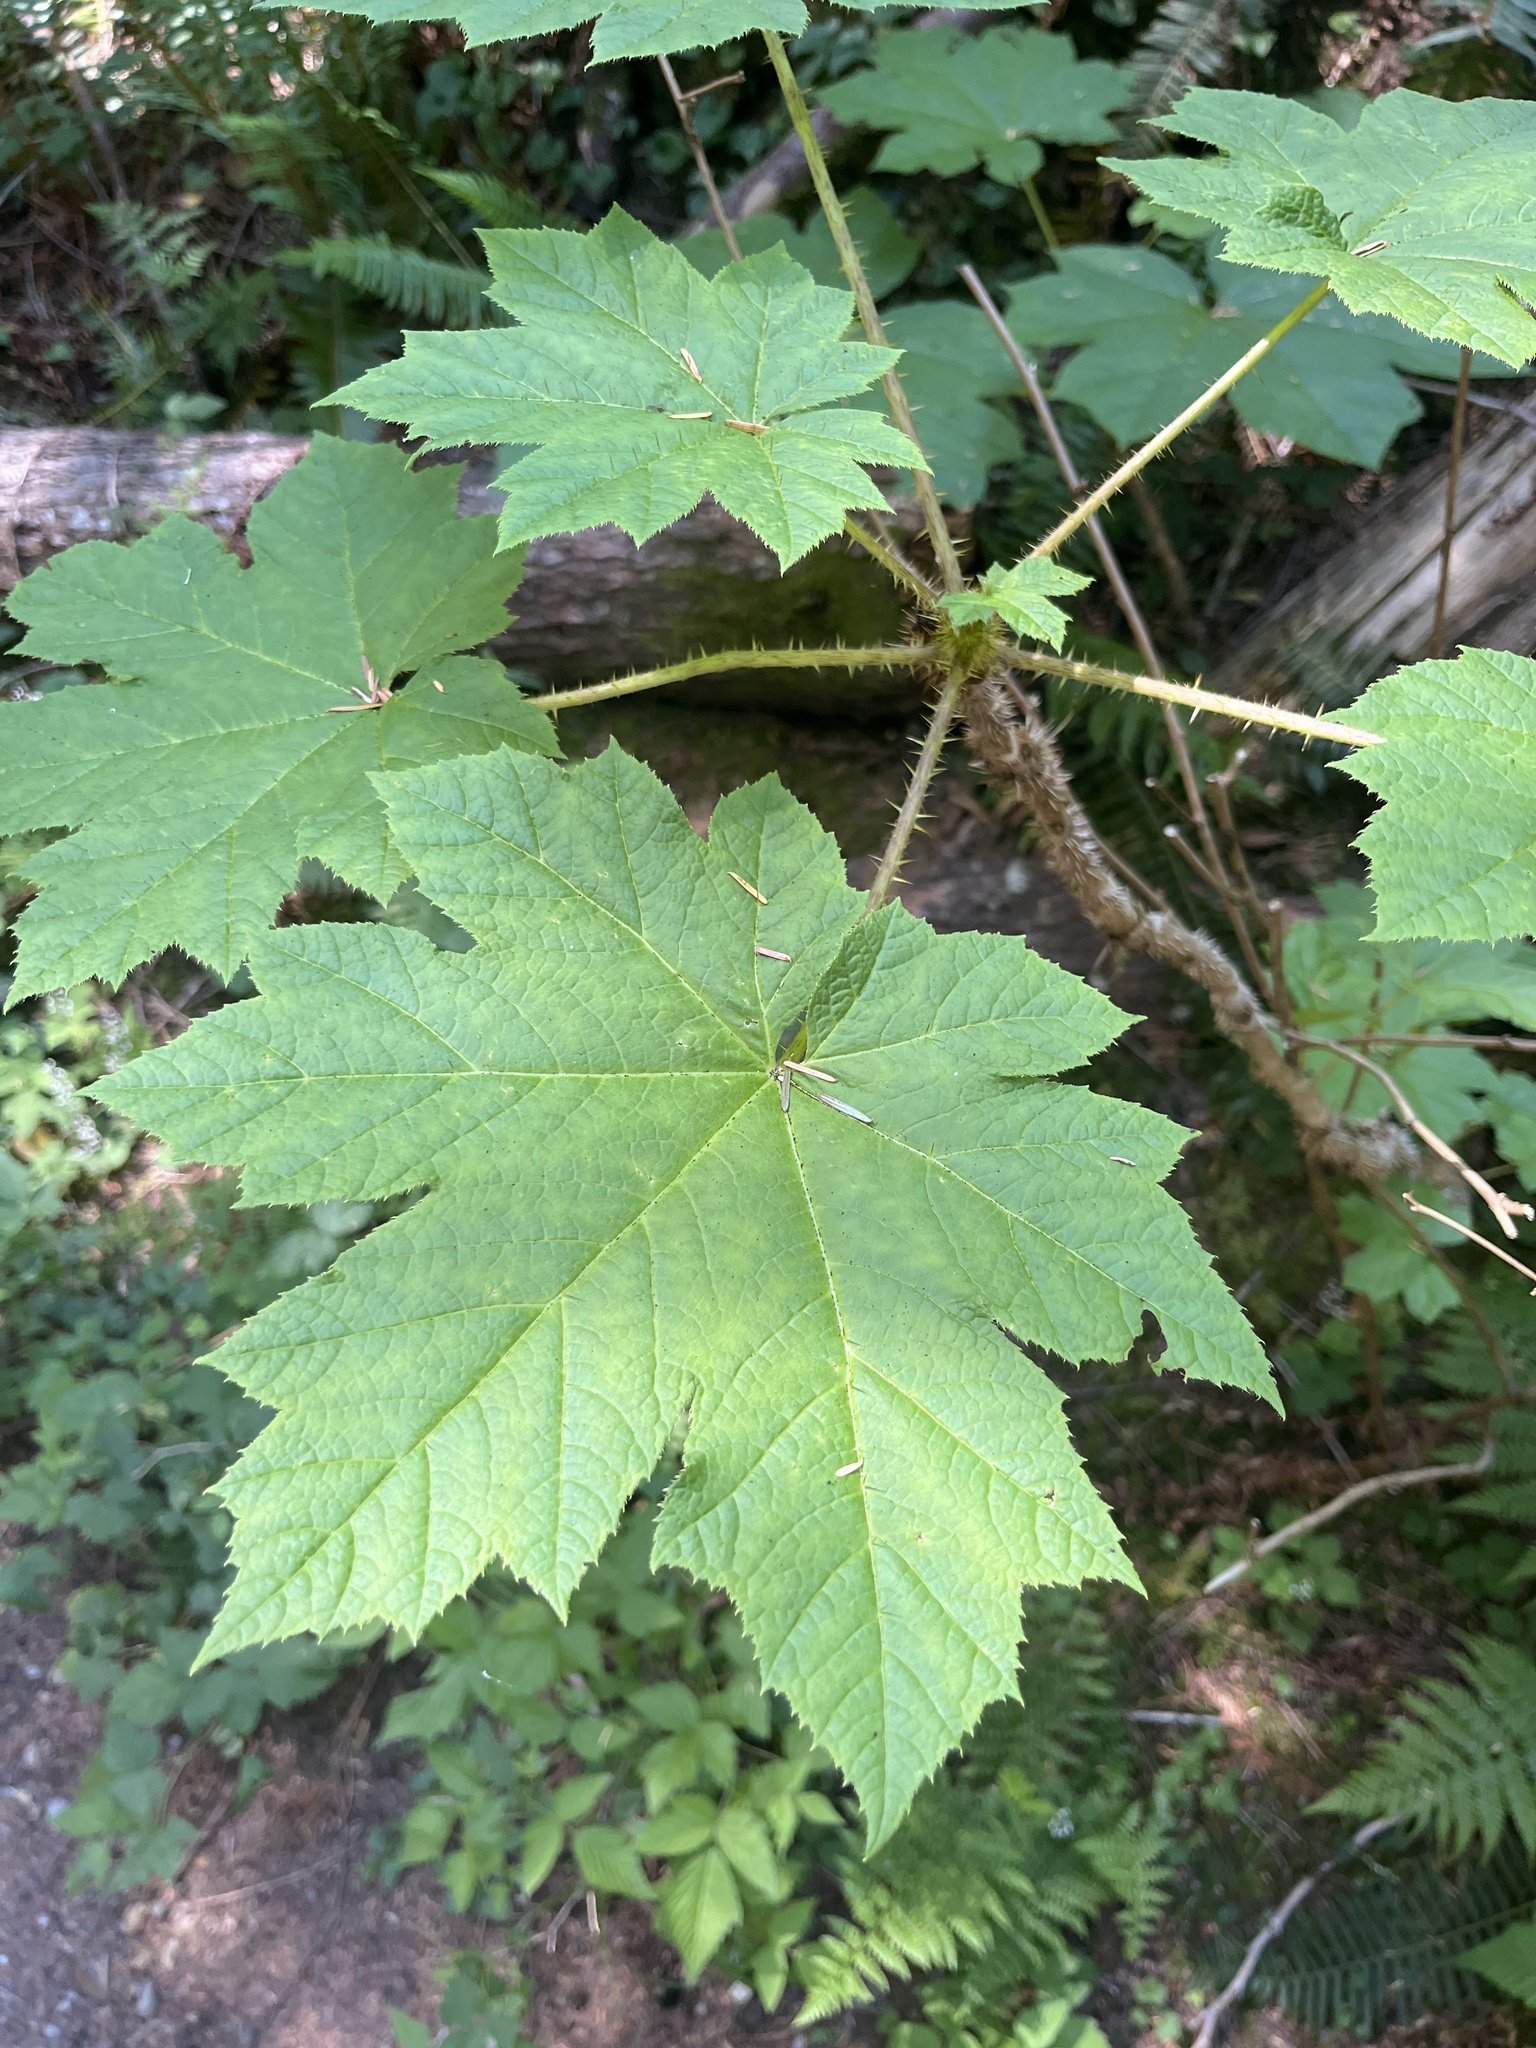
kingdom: Plantae
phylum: Tracheophyta
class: Magnoliopsida
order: Apiales
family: Araliaceae
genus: Oplopanax
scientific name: Oplopanax horridus
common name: Devil's walking-stick
